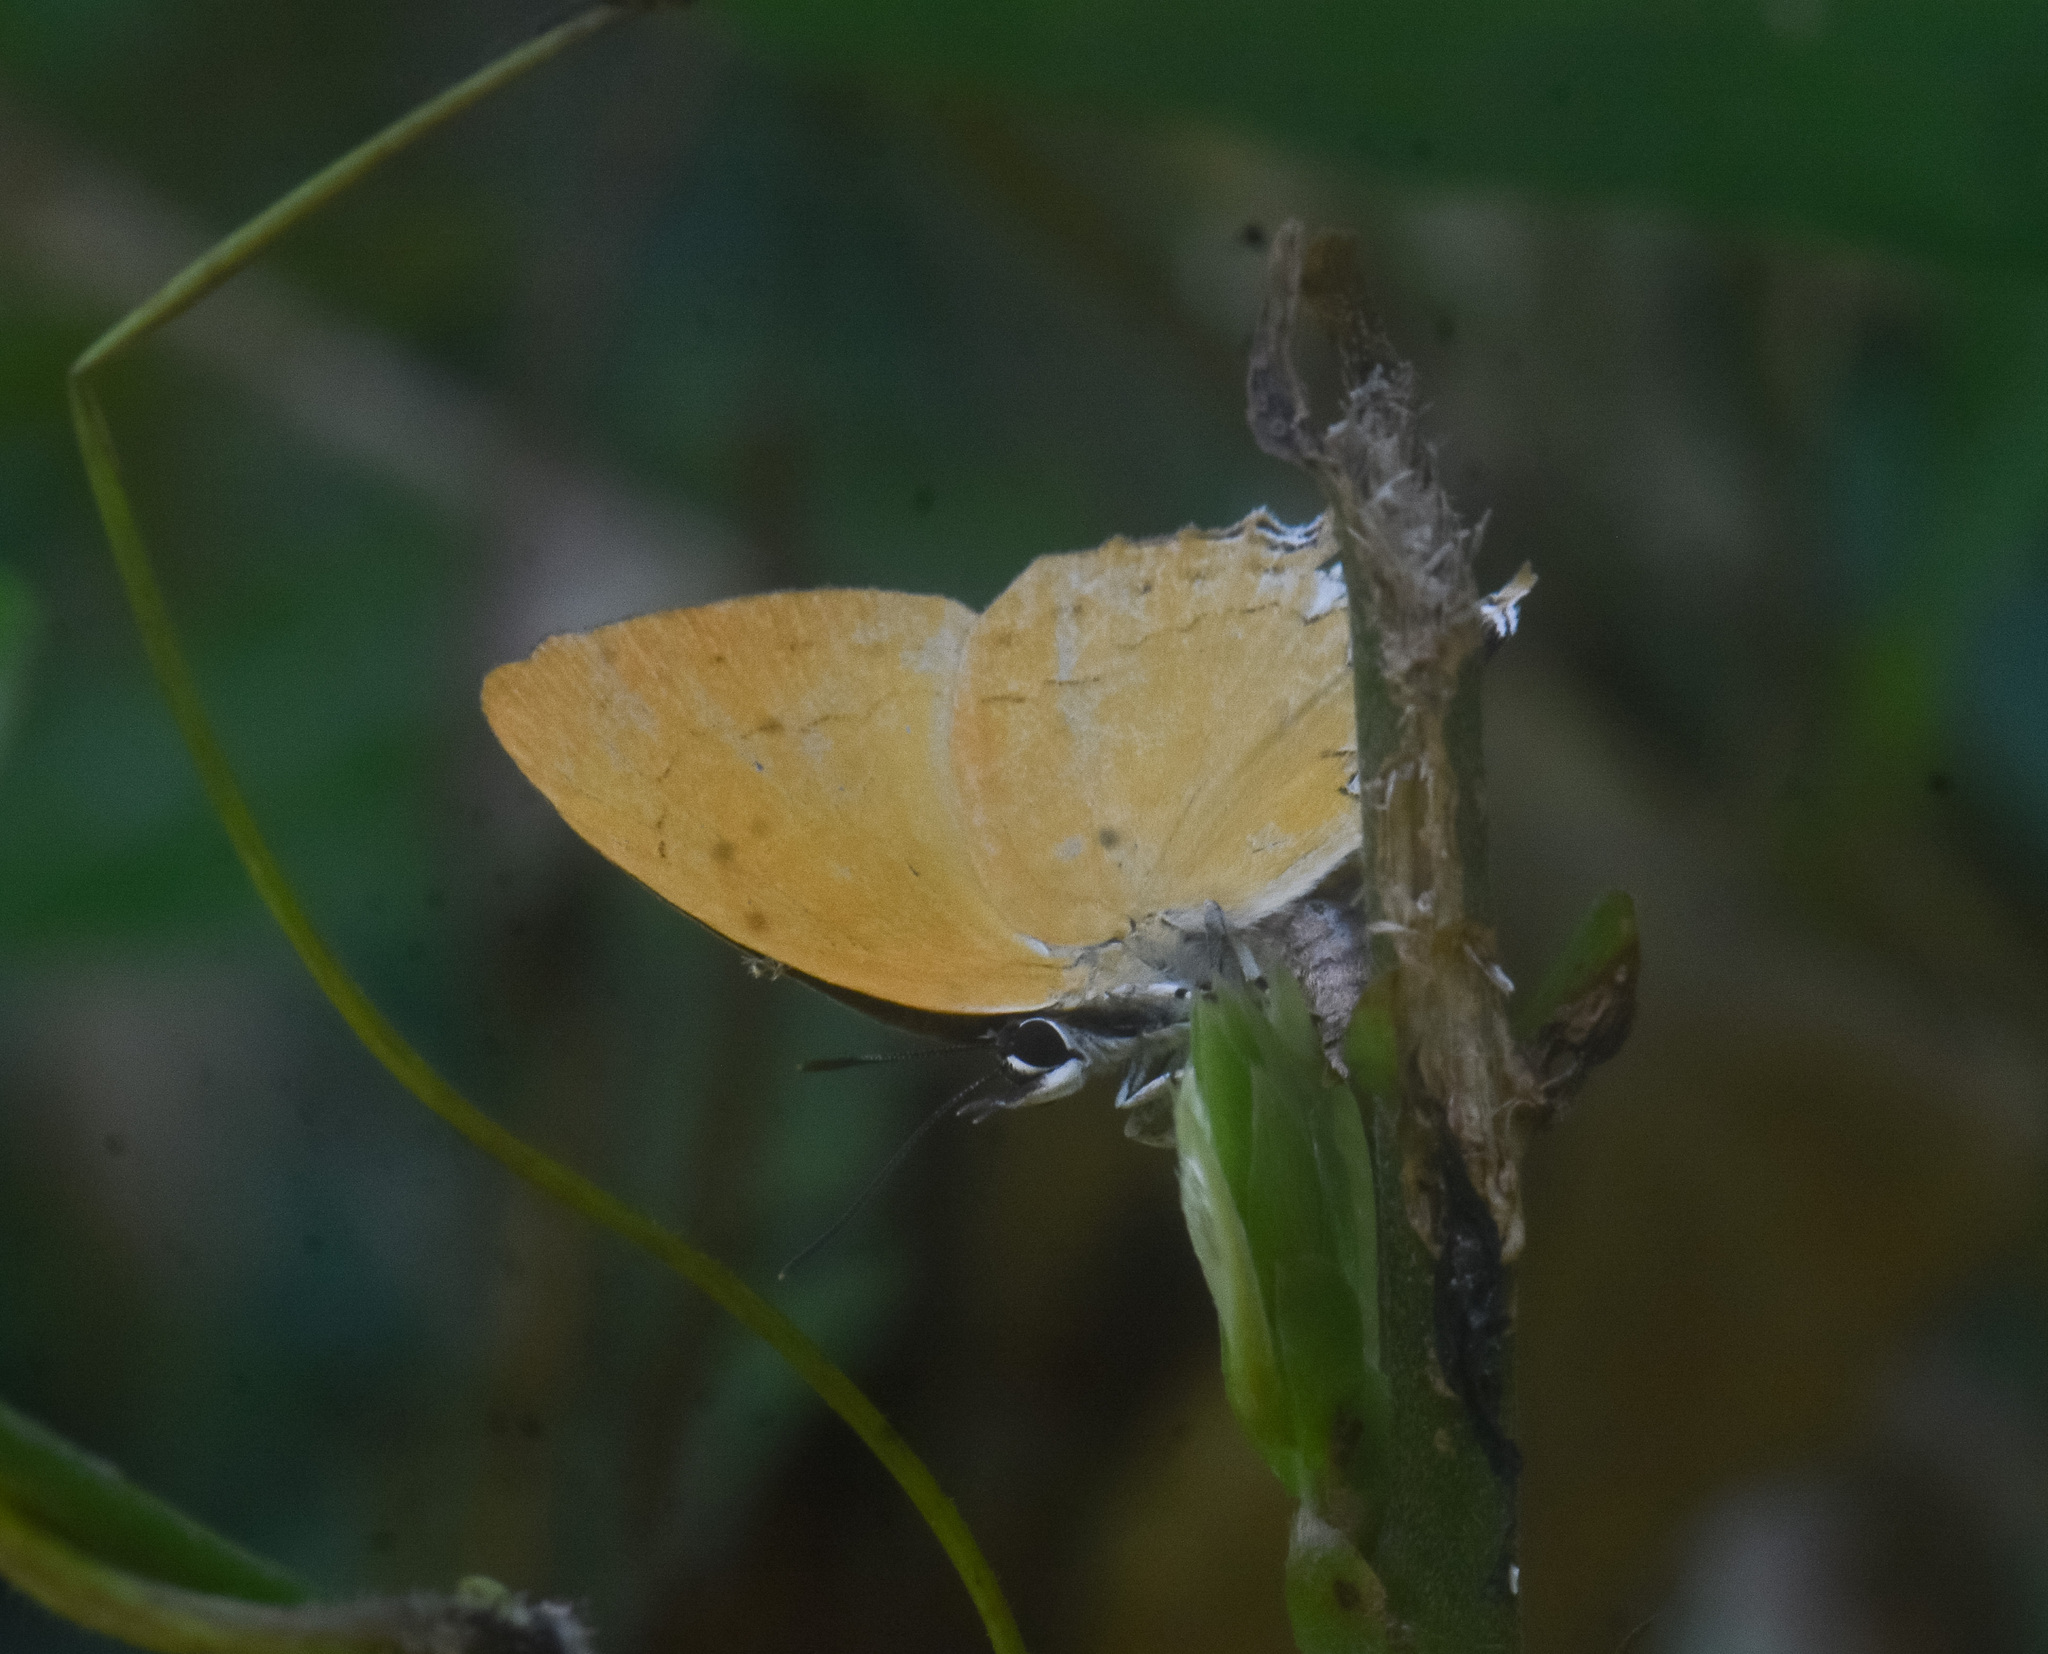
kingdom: Animalia
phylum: Arthropoda
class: Insecta
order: Lepidoptera
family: Lycaenidae
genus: Loxura
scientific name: Loxura atymnus
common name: Common yamfly
